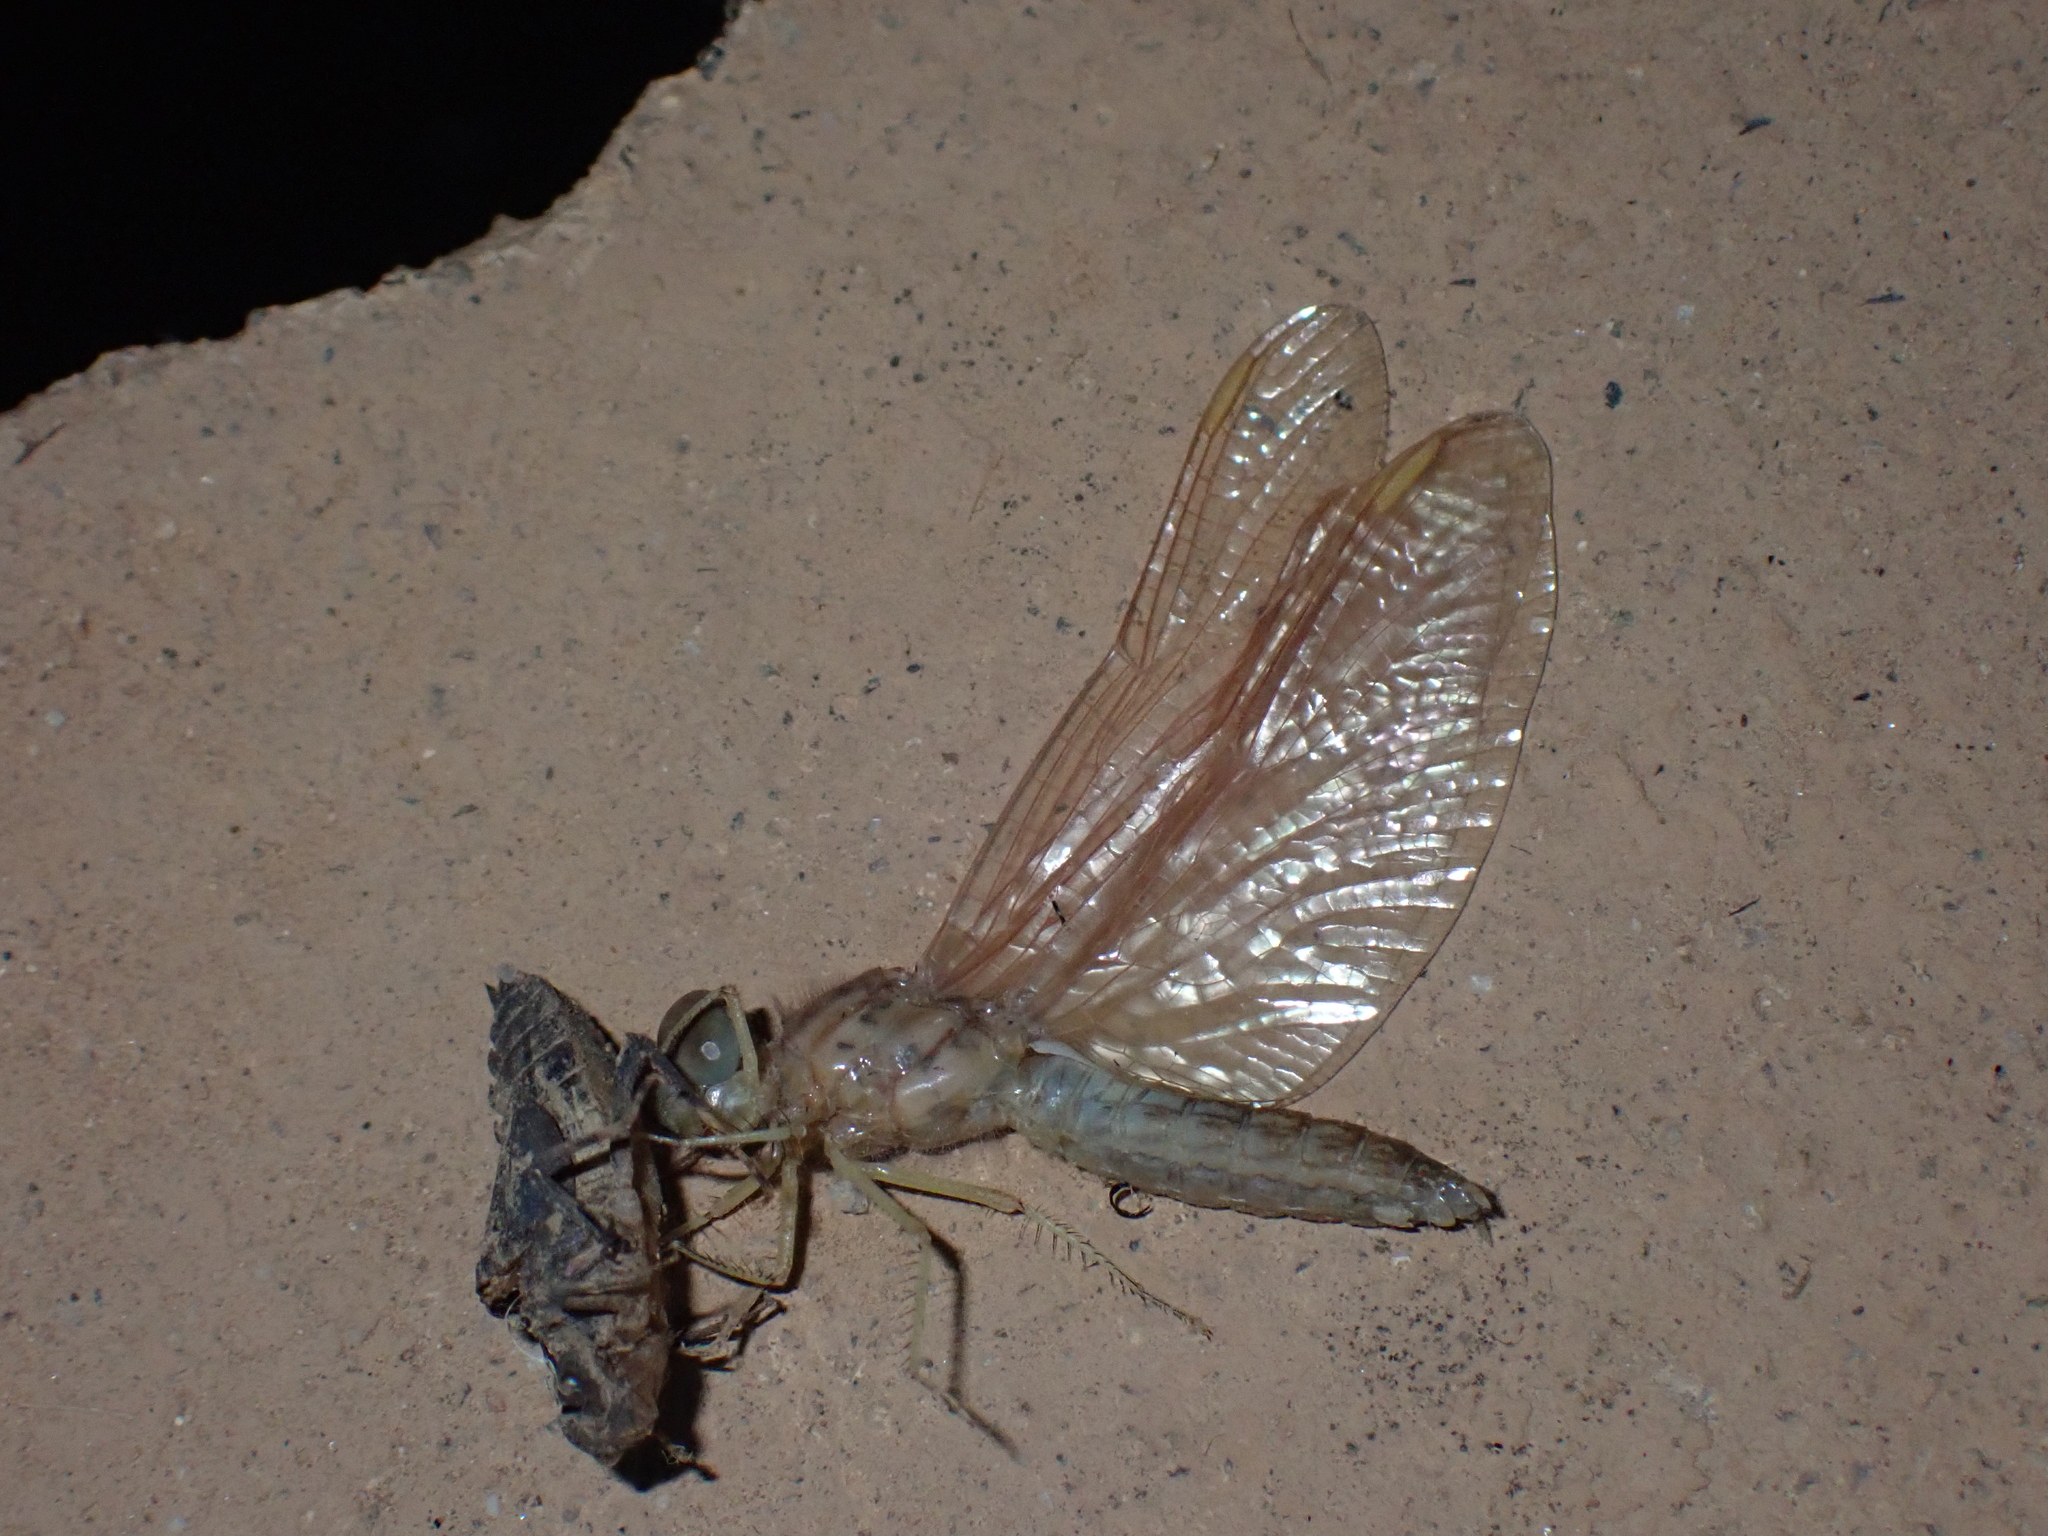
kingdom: Animalia
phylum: Arthropoda
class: Insecta
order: Odonata
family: Libellulidae
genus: Brachythemis
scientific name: Brachythemis contaminata
